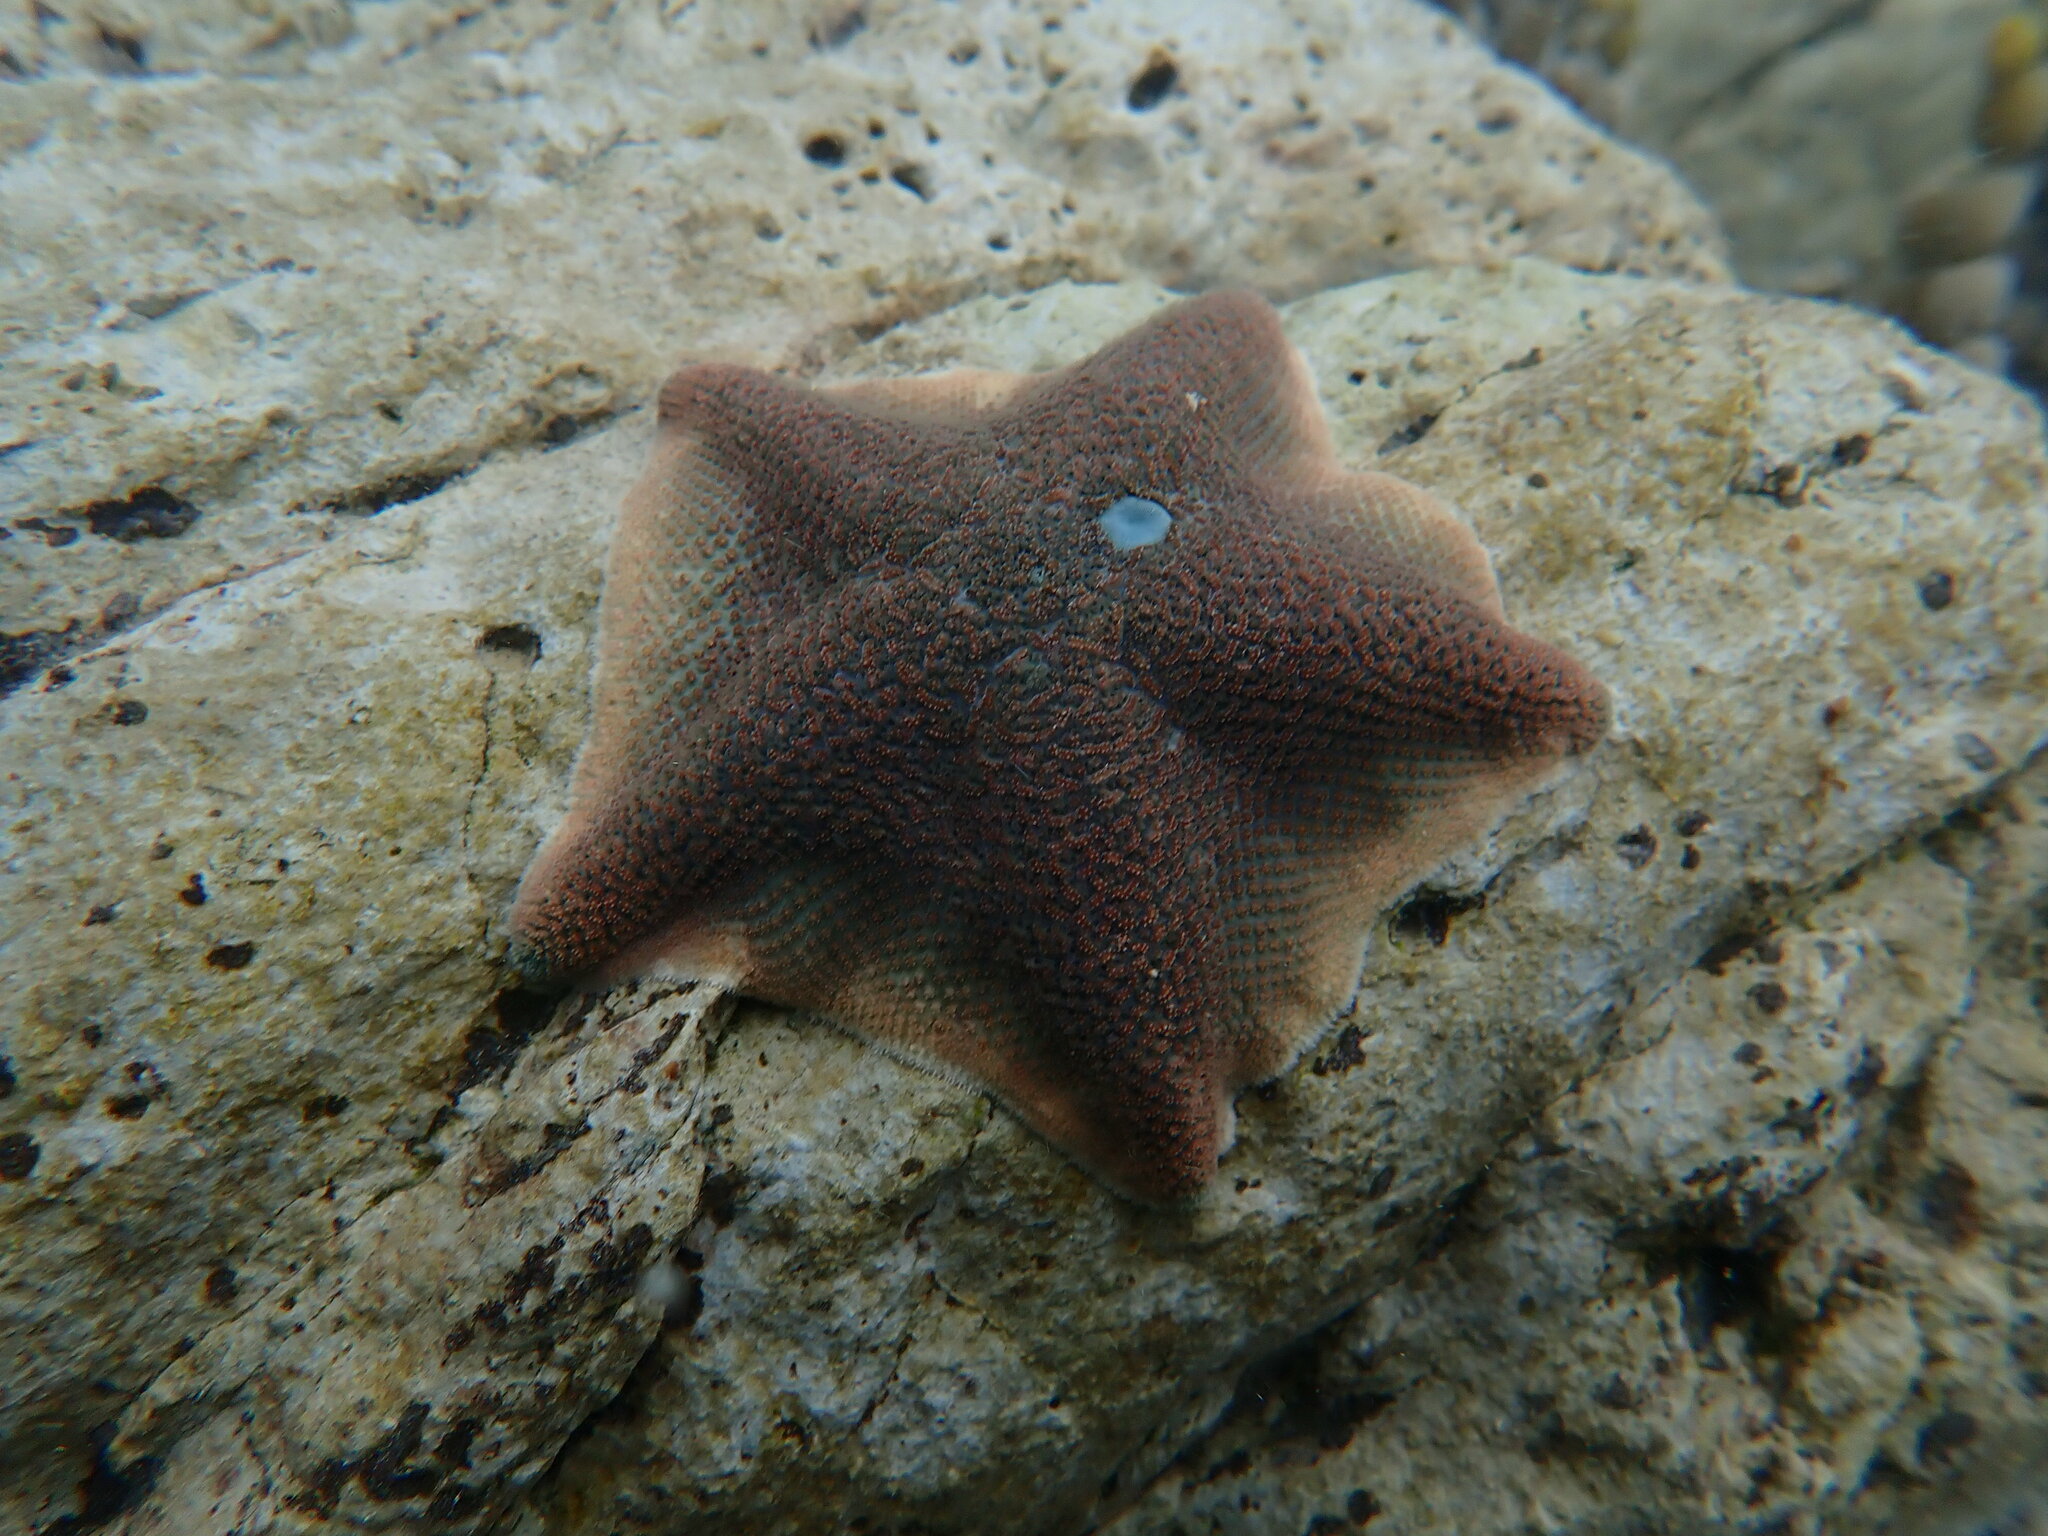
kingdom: Animalia
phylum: Echinodermata
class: Asteroidea
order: Valvatida
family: Asterinidae
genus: Patiriella
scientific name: Patiriella regularis
